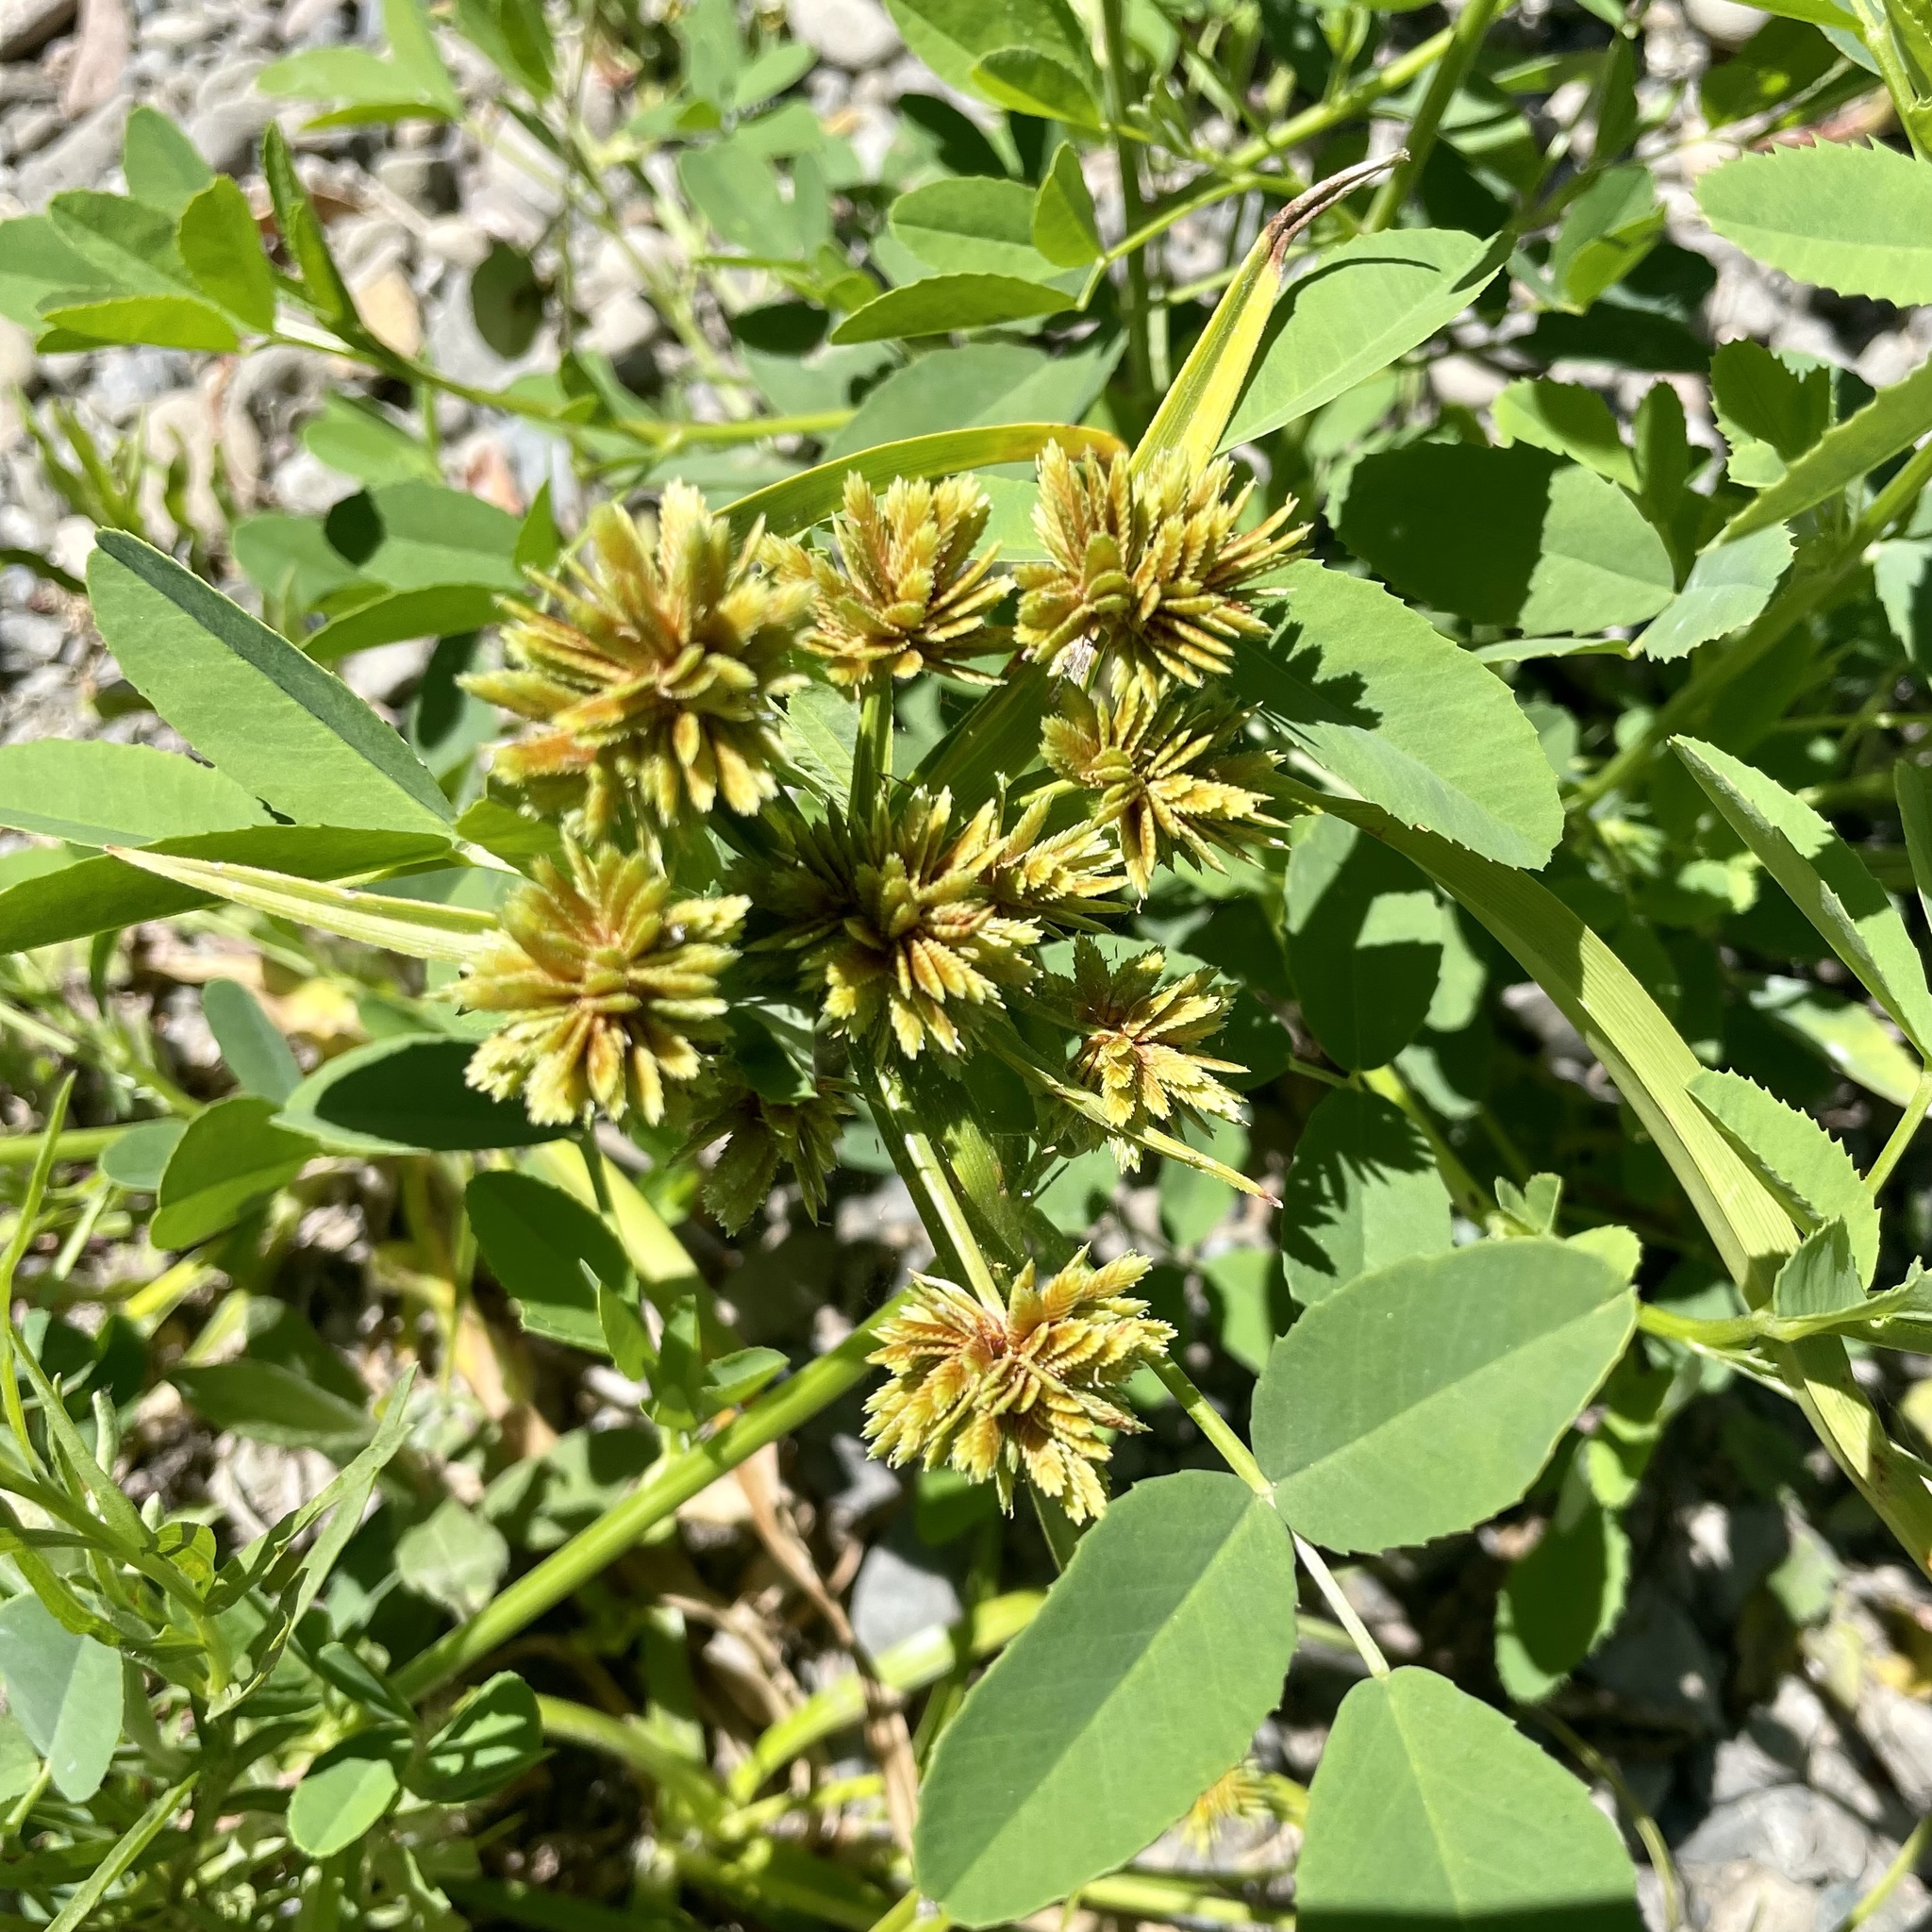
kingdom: Plantae
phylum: Tracheophyta
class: Liliopsida
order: Poales
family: Cyperaceae
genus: Cyperus
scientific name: Cyperus eragrostis
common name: Tall flatsedge
